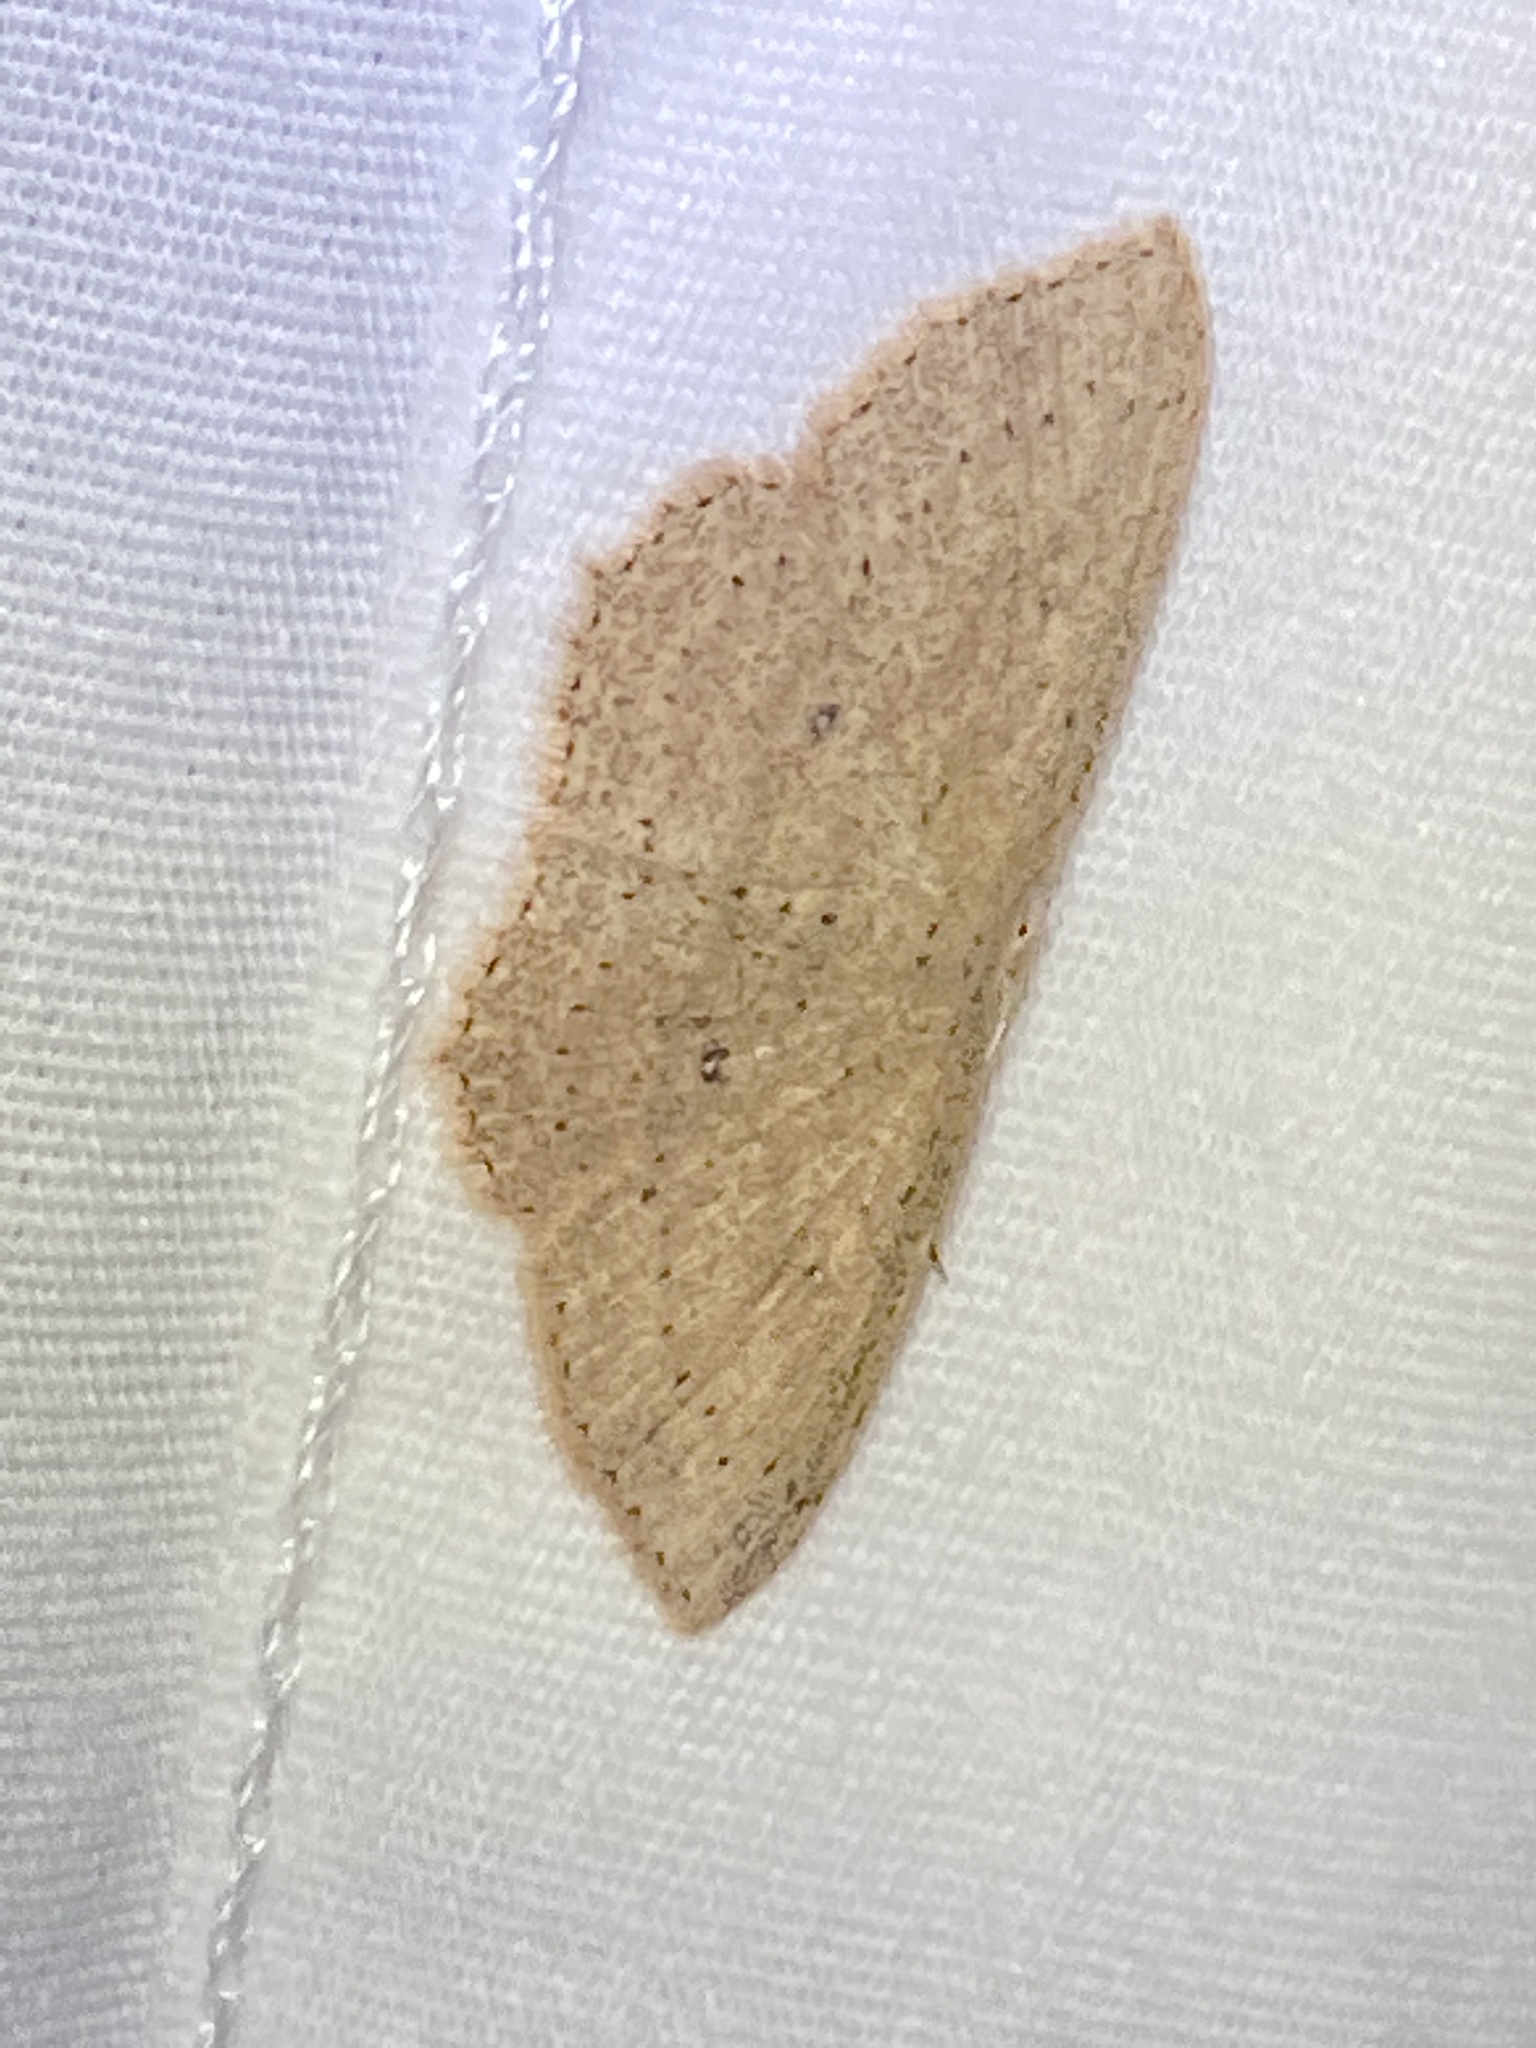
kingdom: Animalia
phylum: Arthropoda
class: Insecta
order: Lepidoptera
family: Geometridae
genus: Cyclophora
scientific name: Cyclophora myrtaria
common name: Waxmyrtle wave moth
